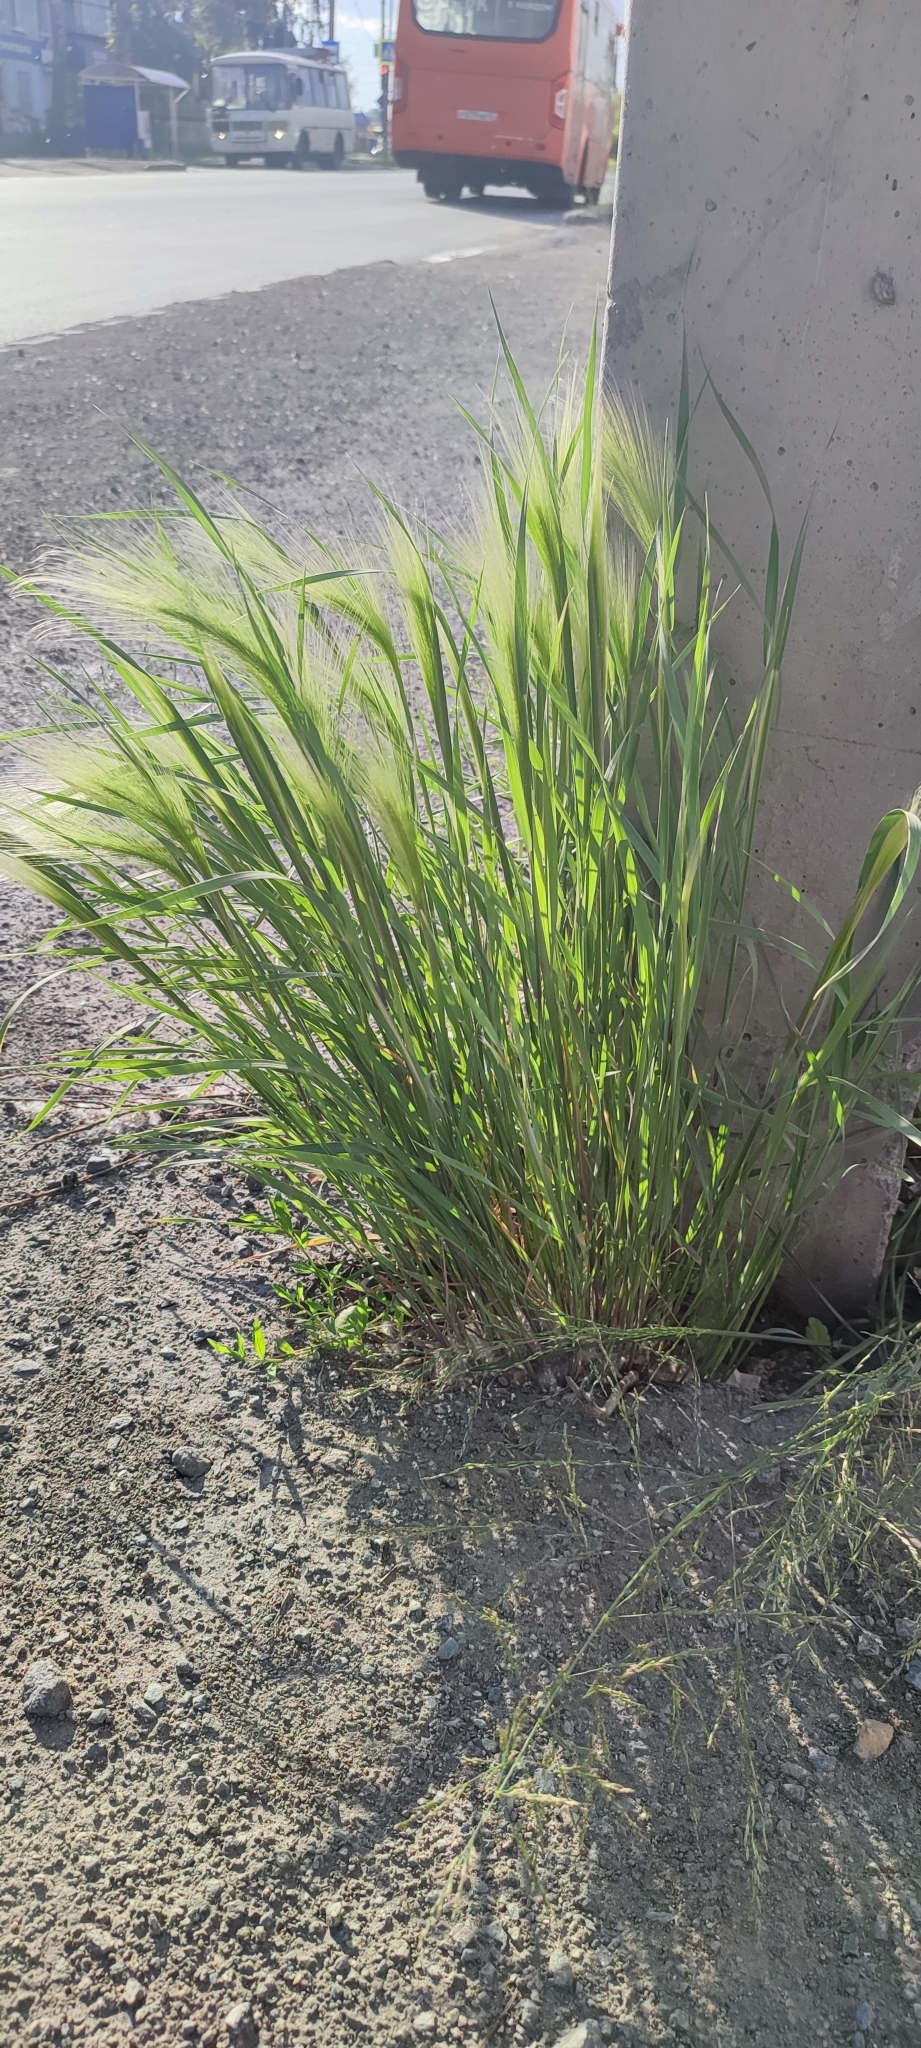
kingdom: Plantae
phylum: Tracheophyta
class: Liliopsida
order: Poales
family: Poaceae
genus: Hordeum
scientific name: Hordeum jubatum
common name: Foxtail barley
